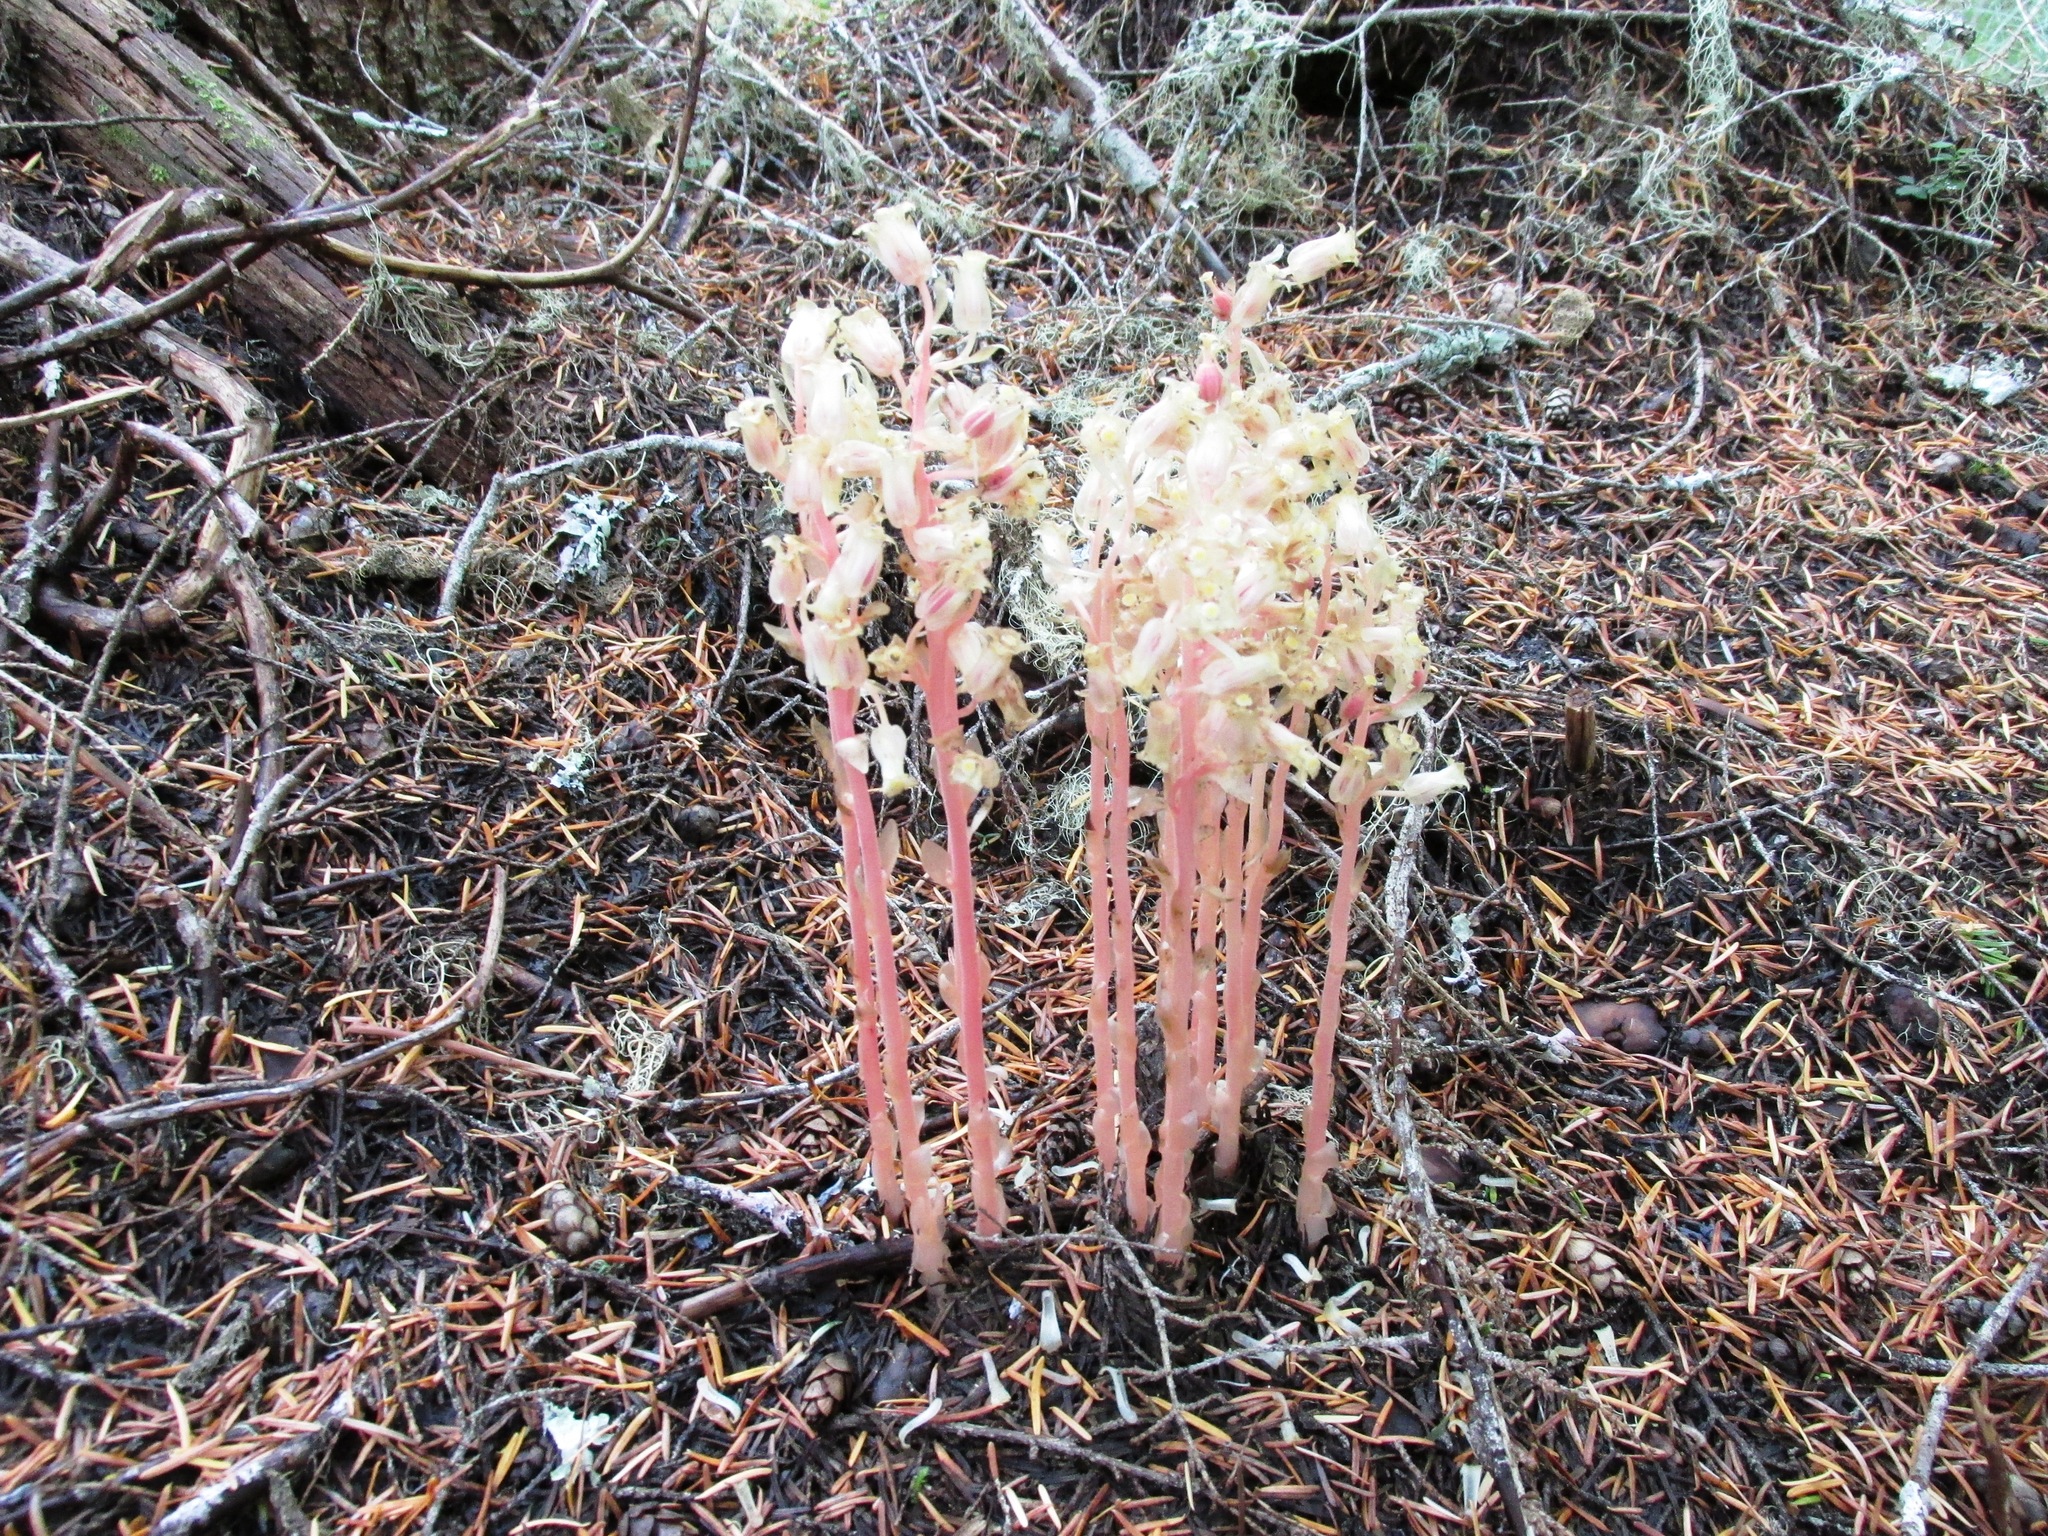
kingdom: Plantae
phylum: Tracheophyta
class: Magnoliopsida
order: Ericales
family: Ericaceae
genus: Hypopitys
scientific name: Hypopitys monotropa
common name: Yellow bird's-nest
